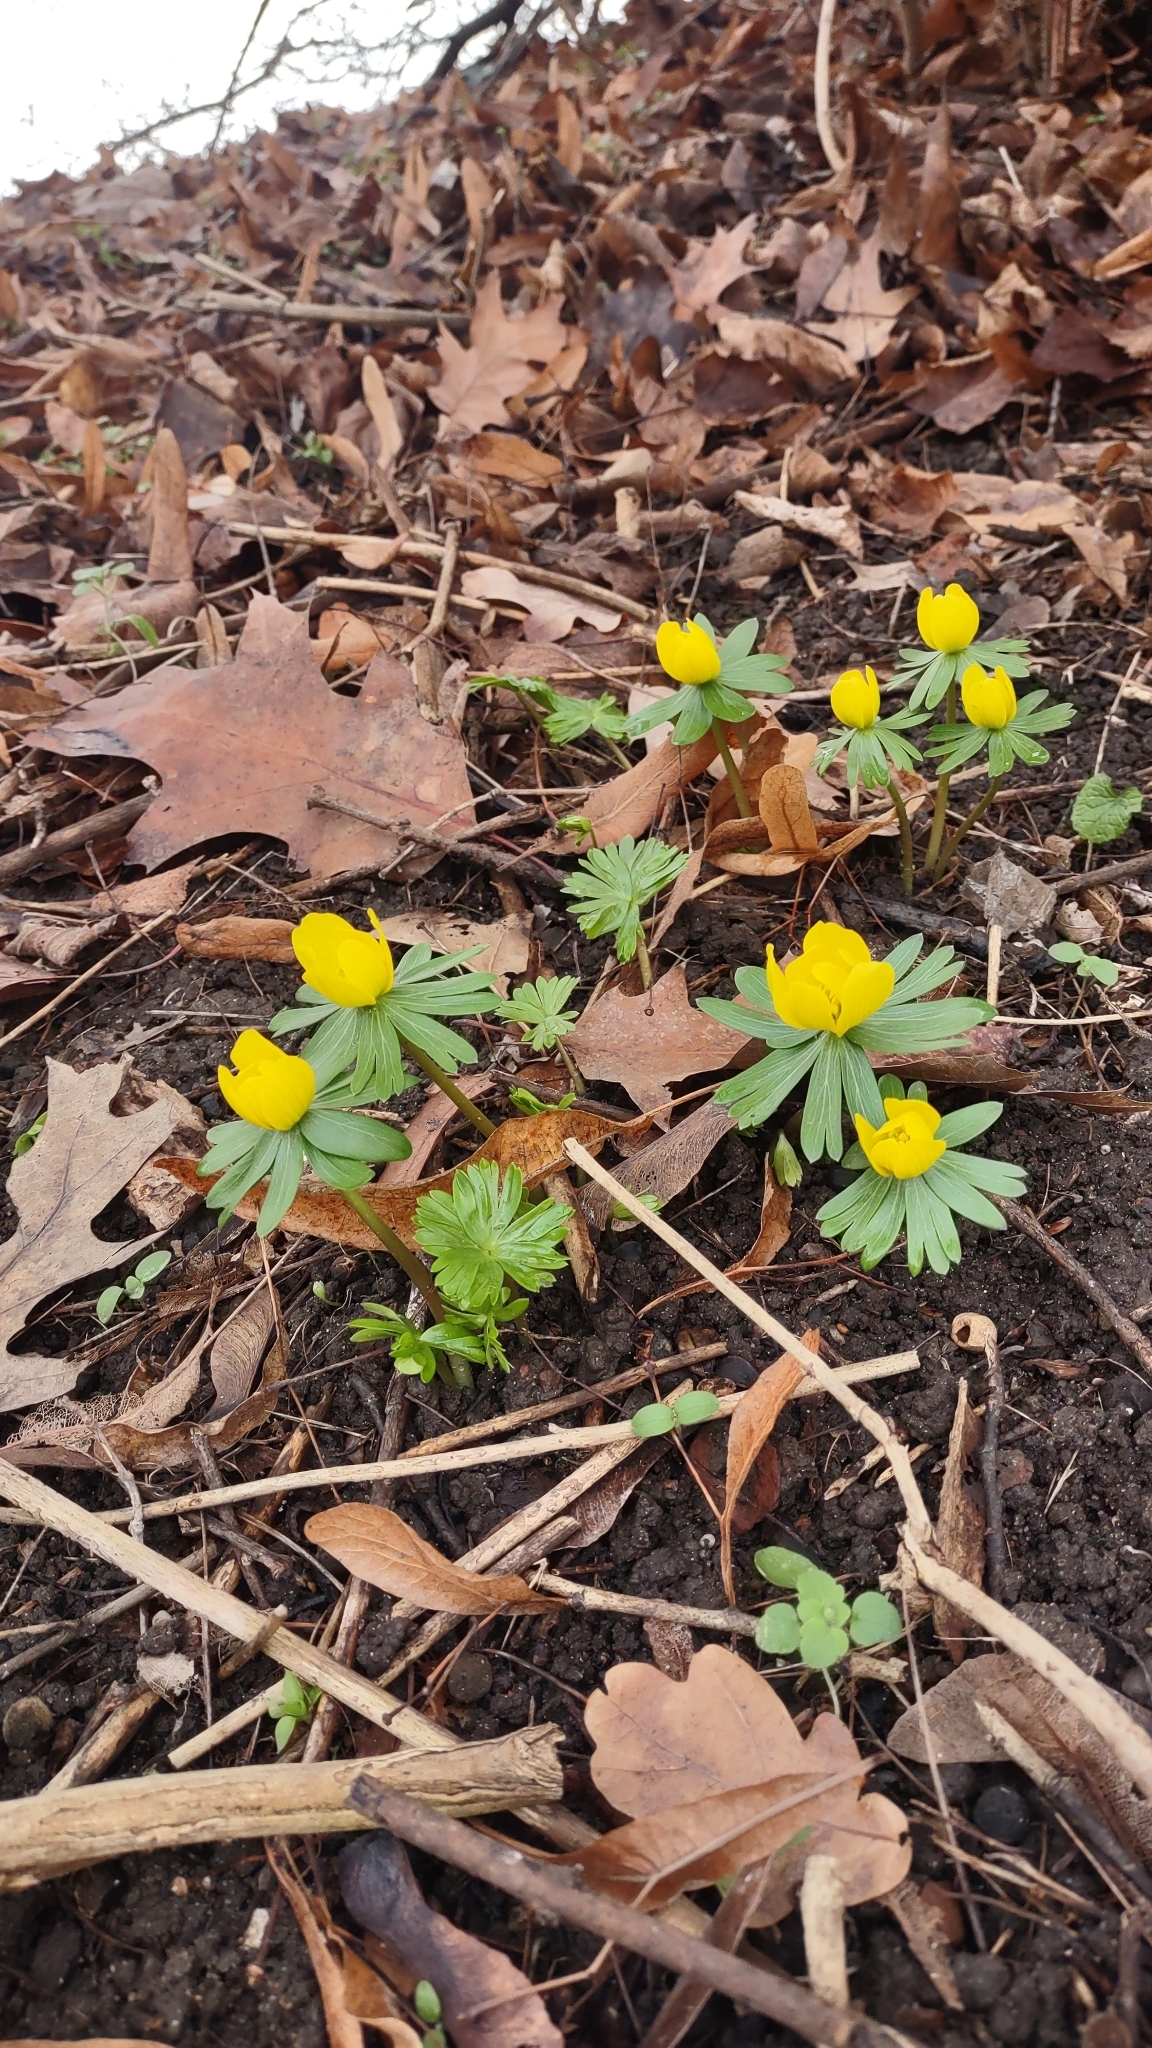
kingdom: Plantae
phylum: Tracheophyta
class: Magnoliopsida
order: Ranunculales
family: Ranunculaceae
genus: Eranthis
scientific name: Eranthis hyemalis
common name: Winter aconite
